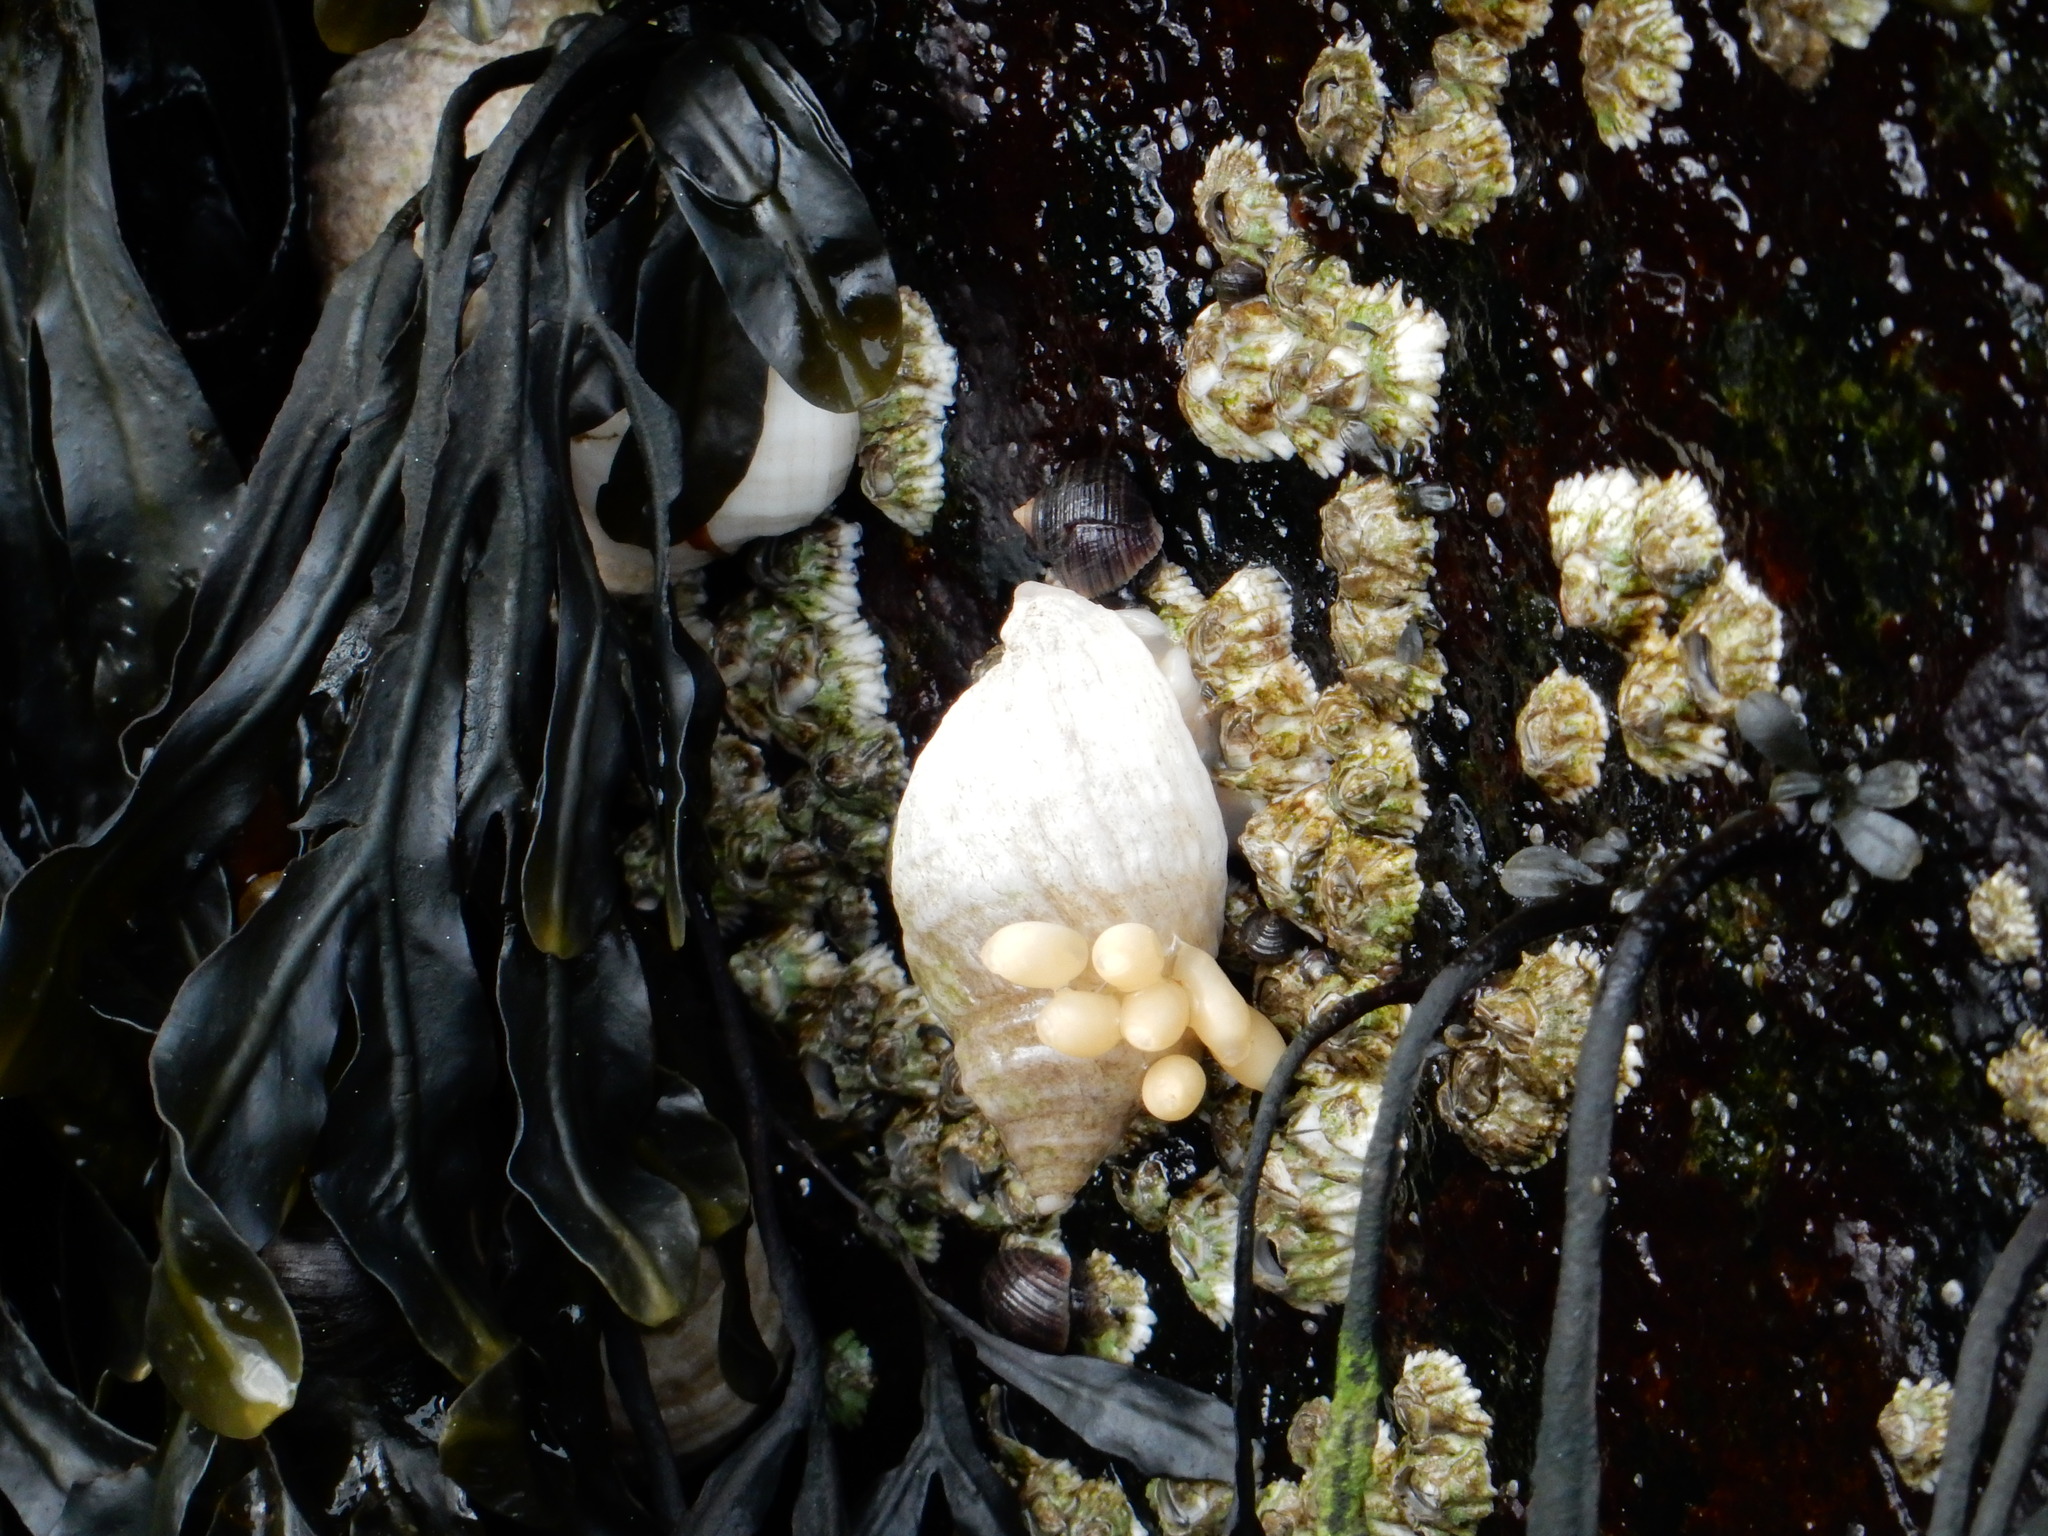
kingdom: Animalia
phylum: Mollusca
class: Gastropoda
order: Neogastropoda
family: Muricidae
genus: Nucella
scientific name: Nucella lapillus
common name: Dog whelk
